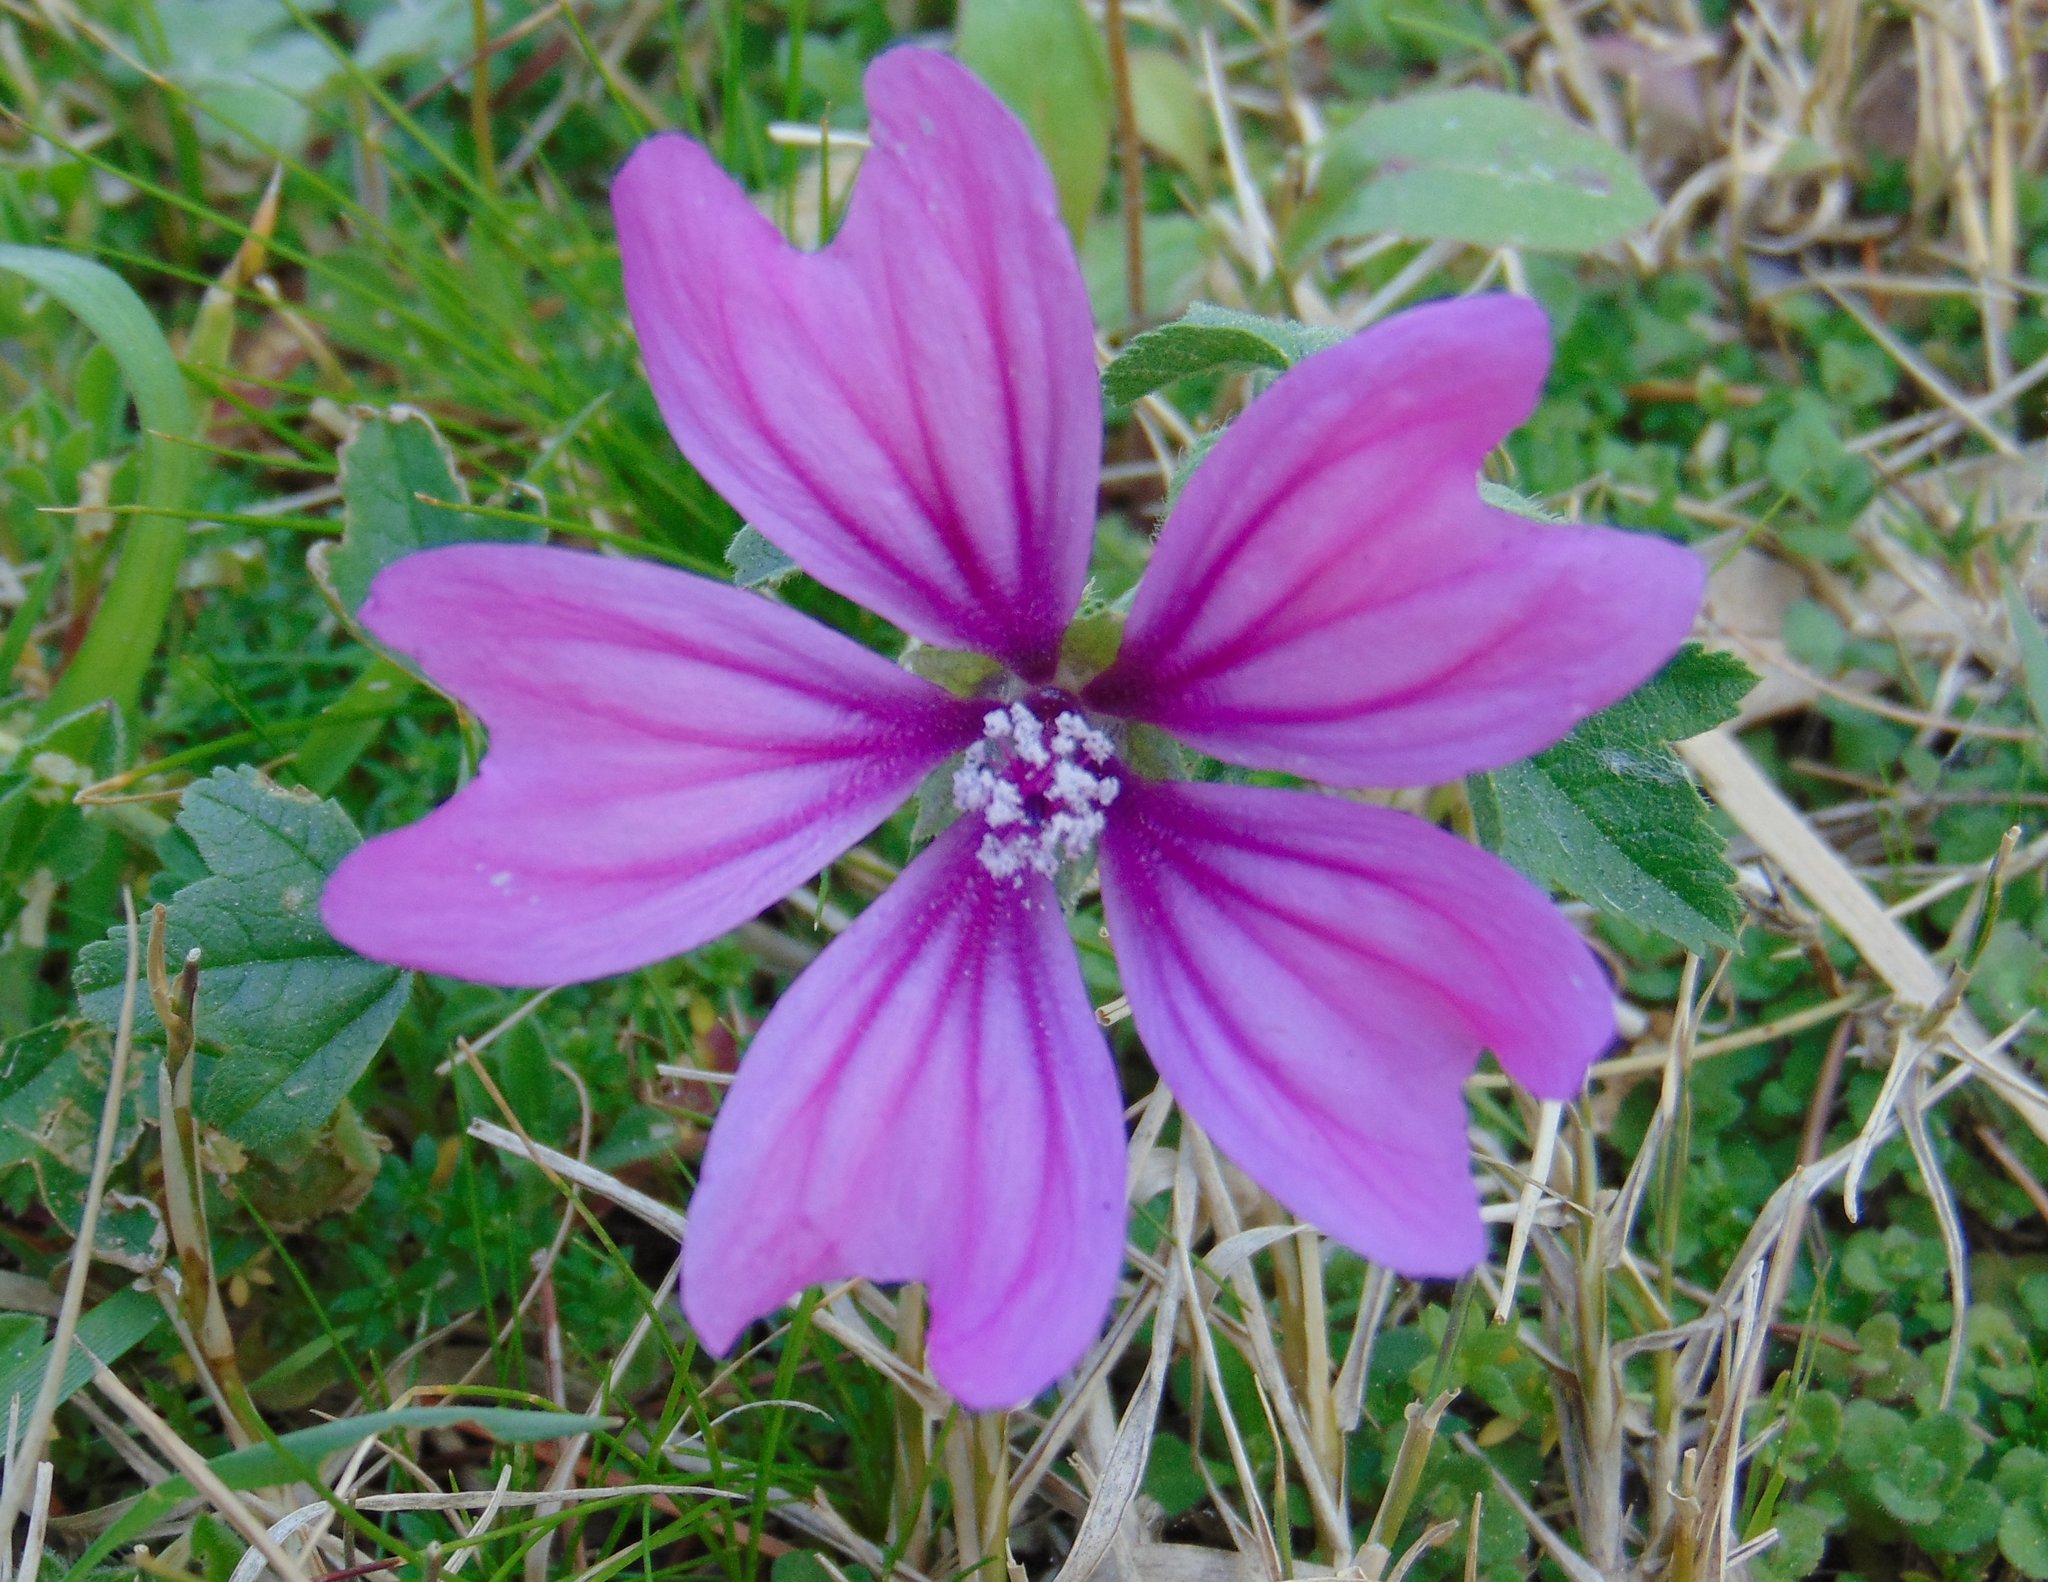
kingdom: Plantae
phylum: Tracheophyta
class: Magnoliopsida
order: Malvales
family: Malvaceae
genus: Malva
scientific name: Malva sylvestris
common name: Common mallow
